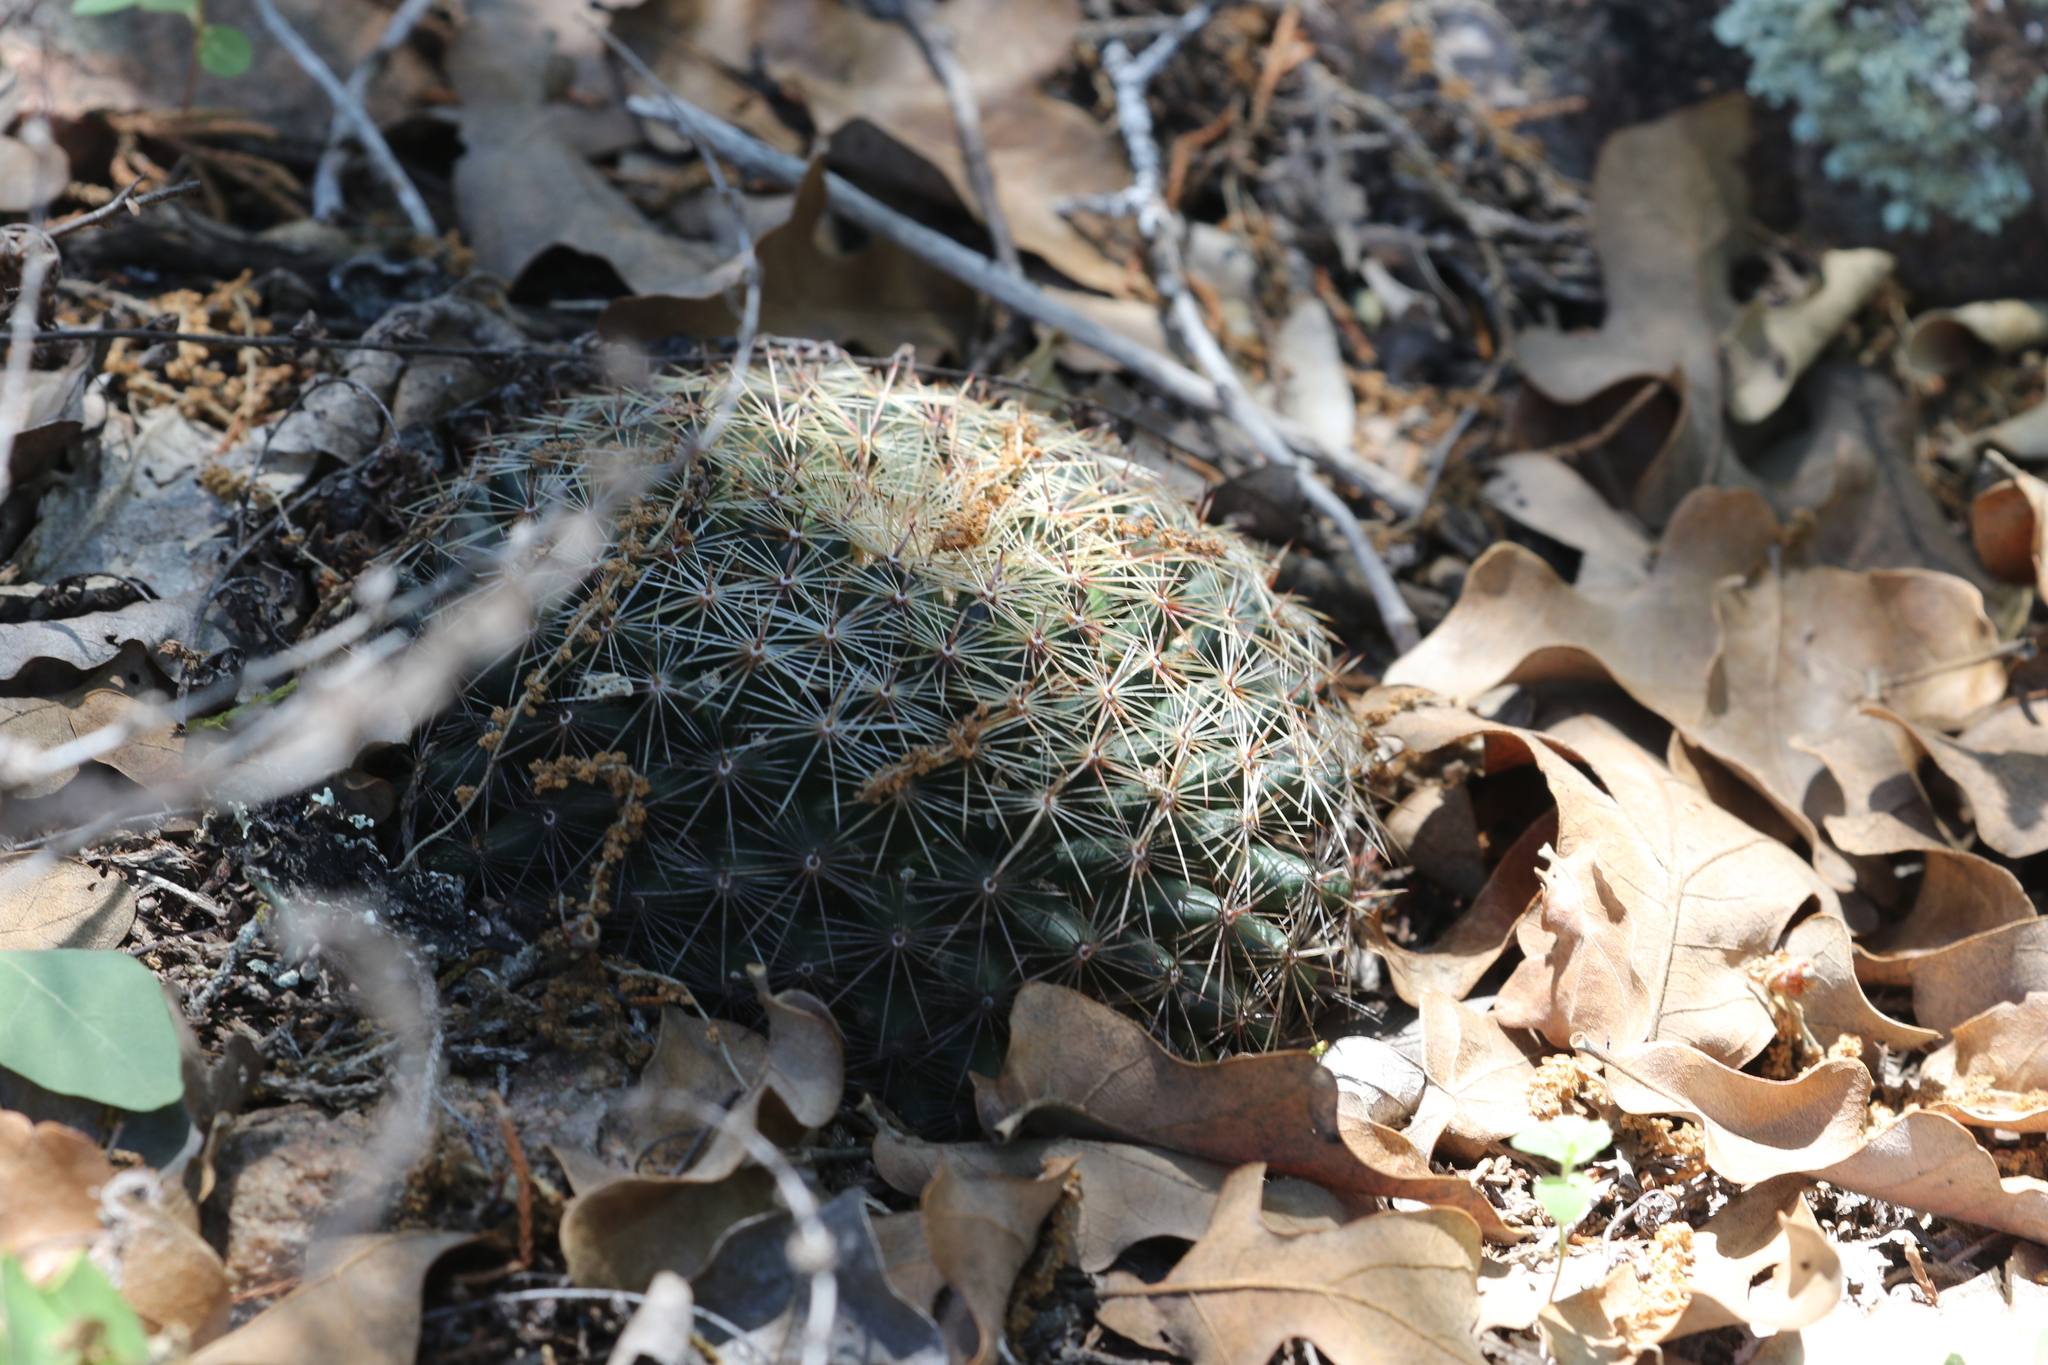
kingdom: Plantae
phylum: Tracheophyta
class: Magnoliopsida
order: Caryophyllales
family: Cactaceae
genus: Mammillaria
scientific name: Mammillaria heyderi
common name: Little nipple cactus
